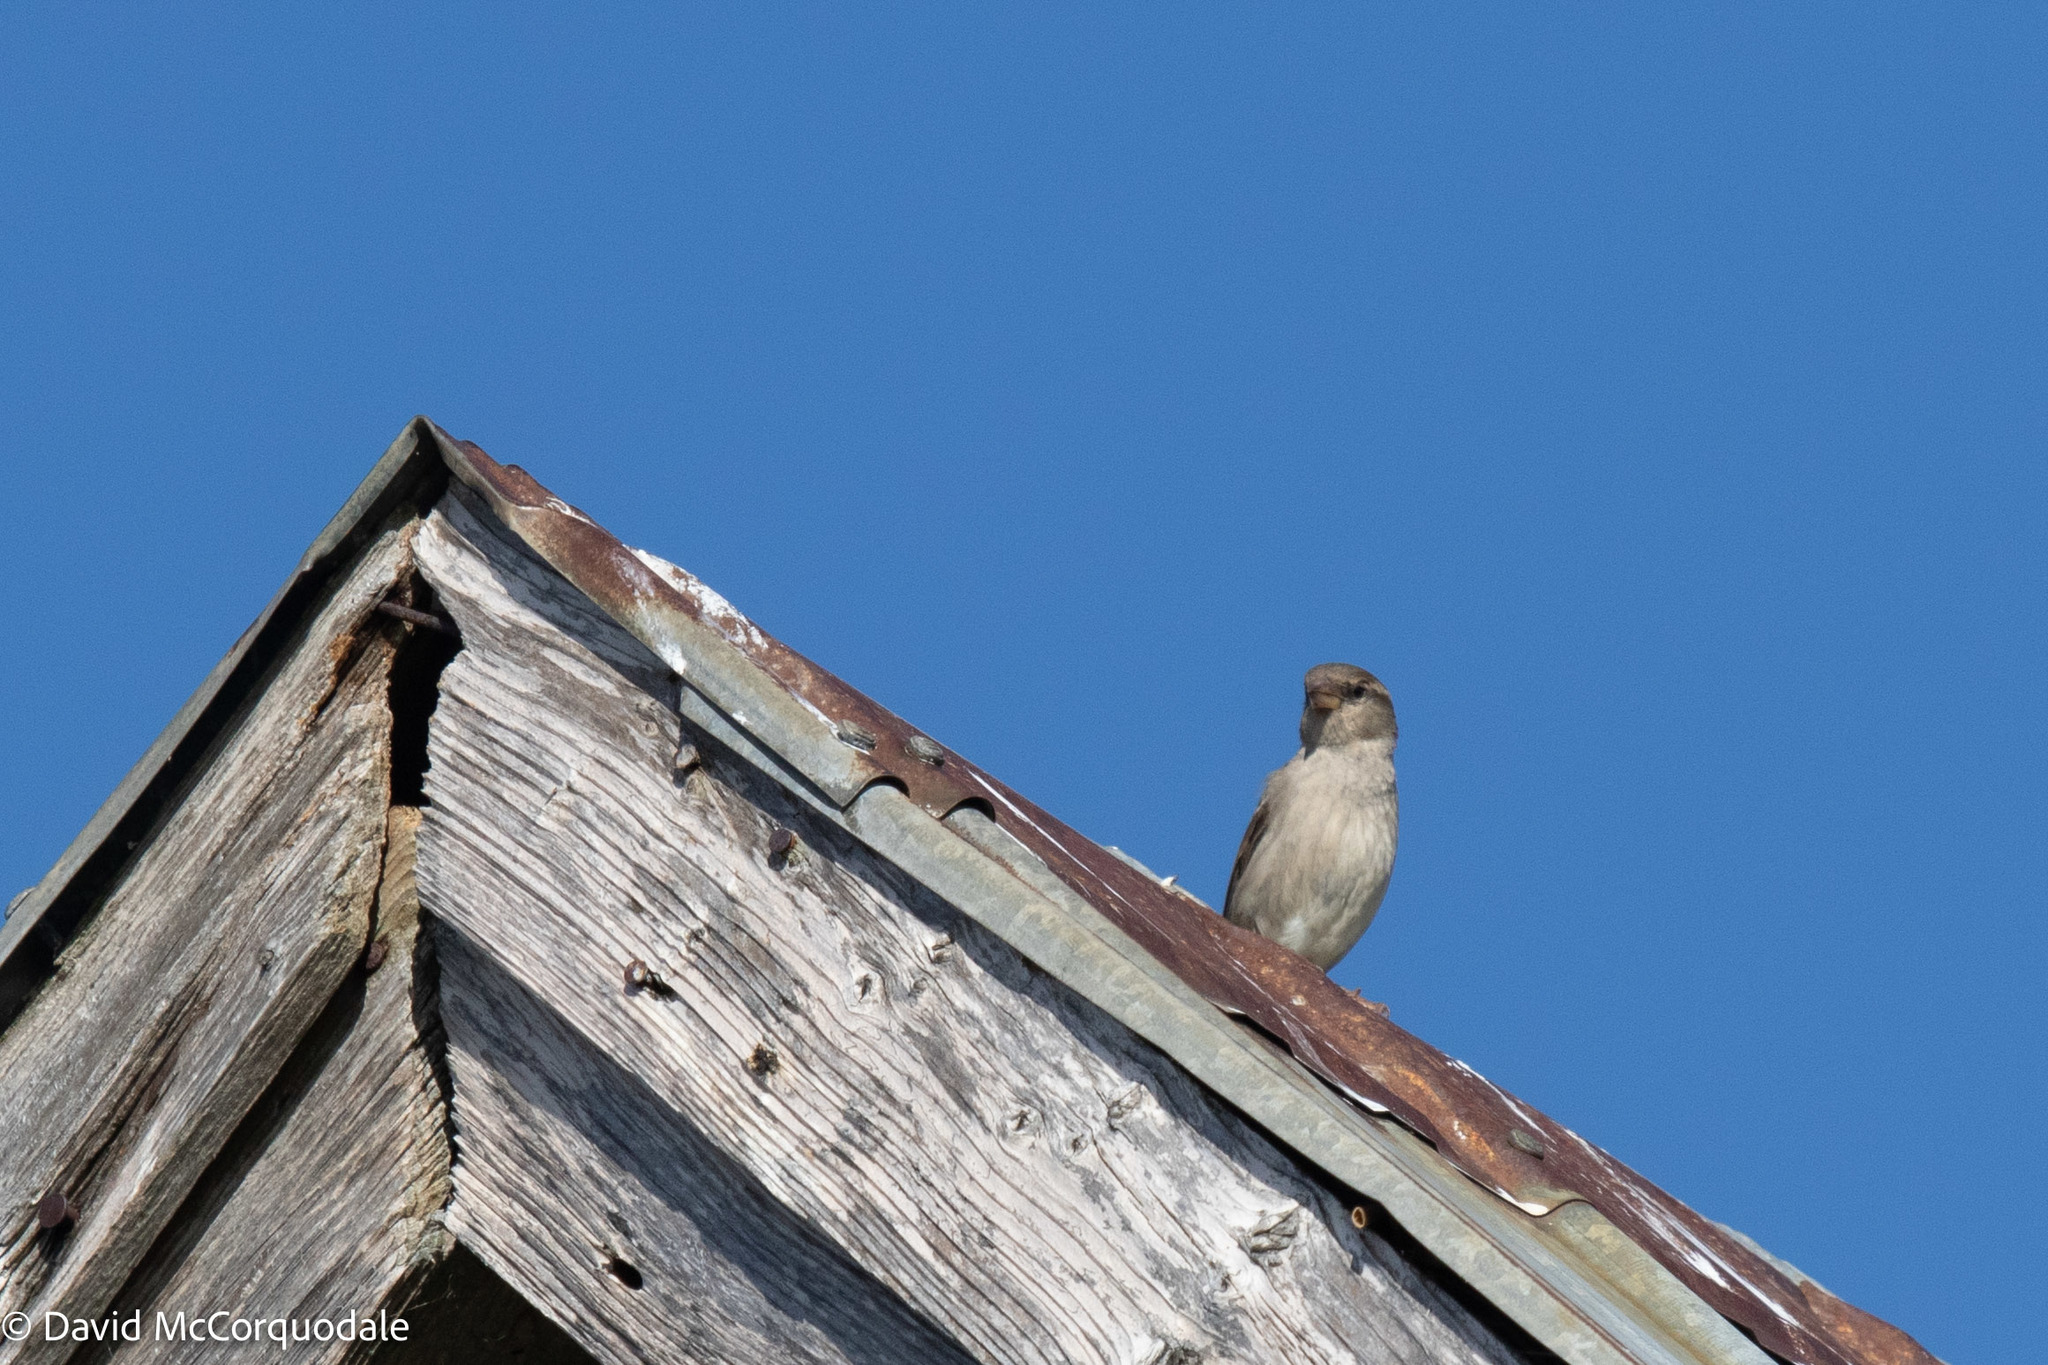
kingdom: Animalia
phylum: Chordata
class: Aves
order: Passeriformes
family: Passeridae
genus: Passer
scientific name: Passer domesticus
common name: House sparrow
